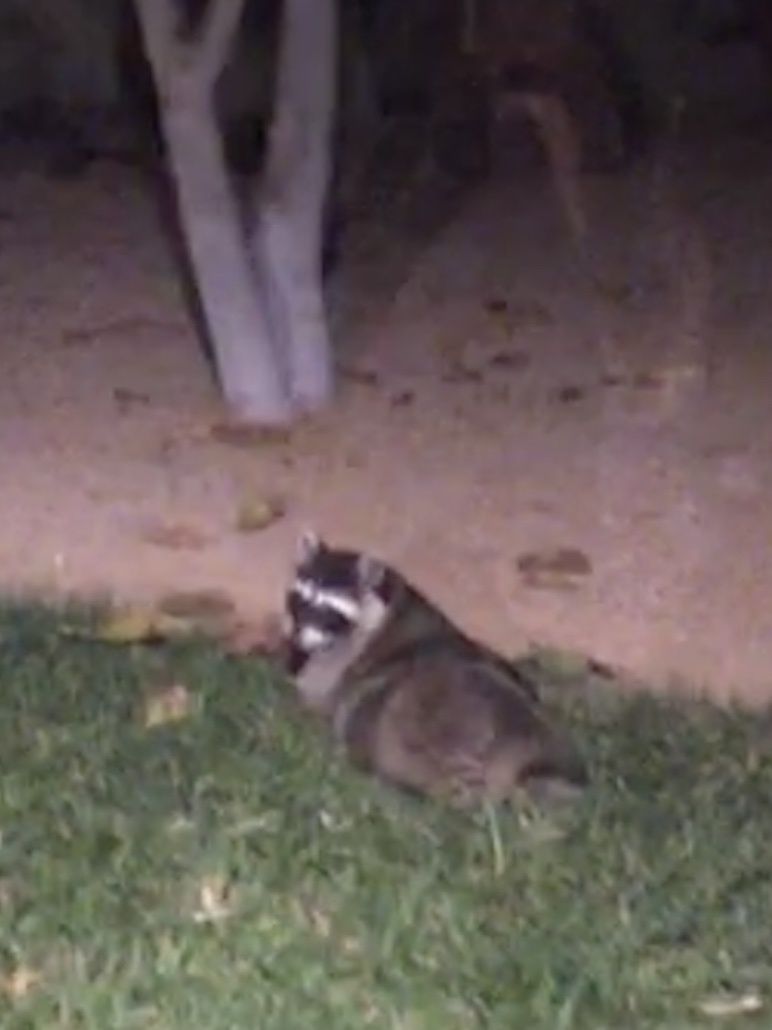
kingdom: Animalia
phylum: Chordata
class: Mammalia
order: Carnivora
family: Procyonidae
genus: Procyon
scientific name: Procyon lotor
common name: Raccoon
